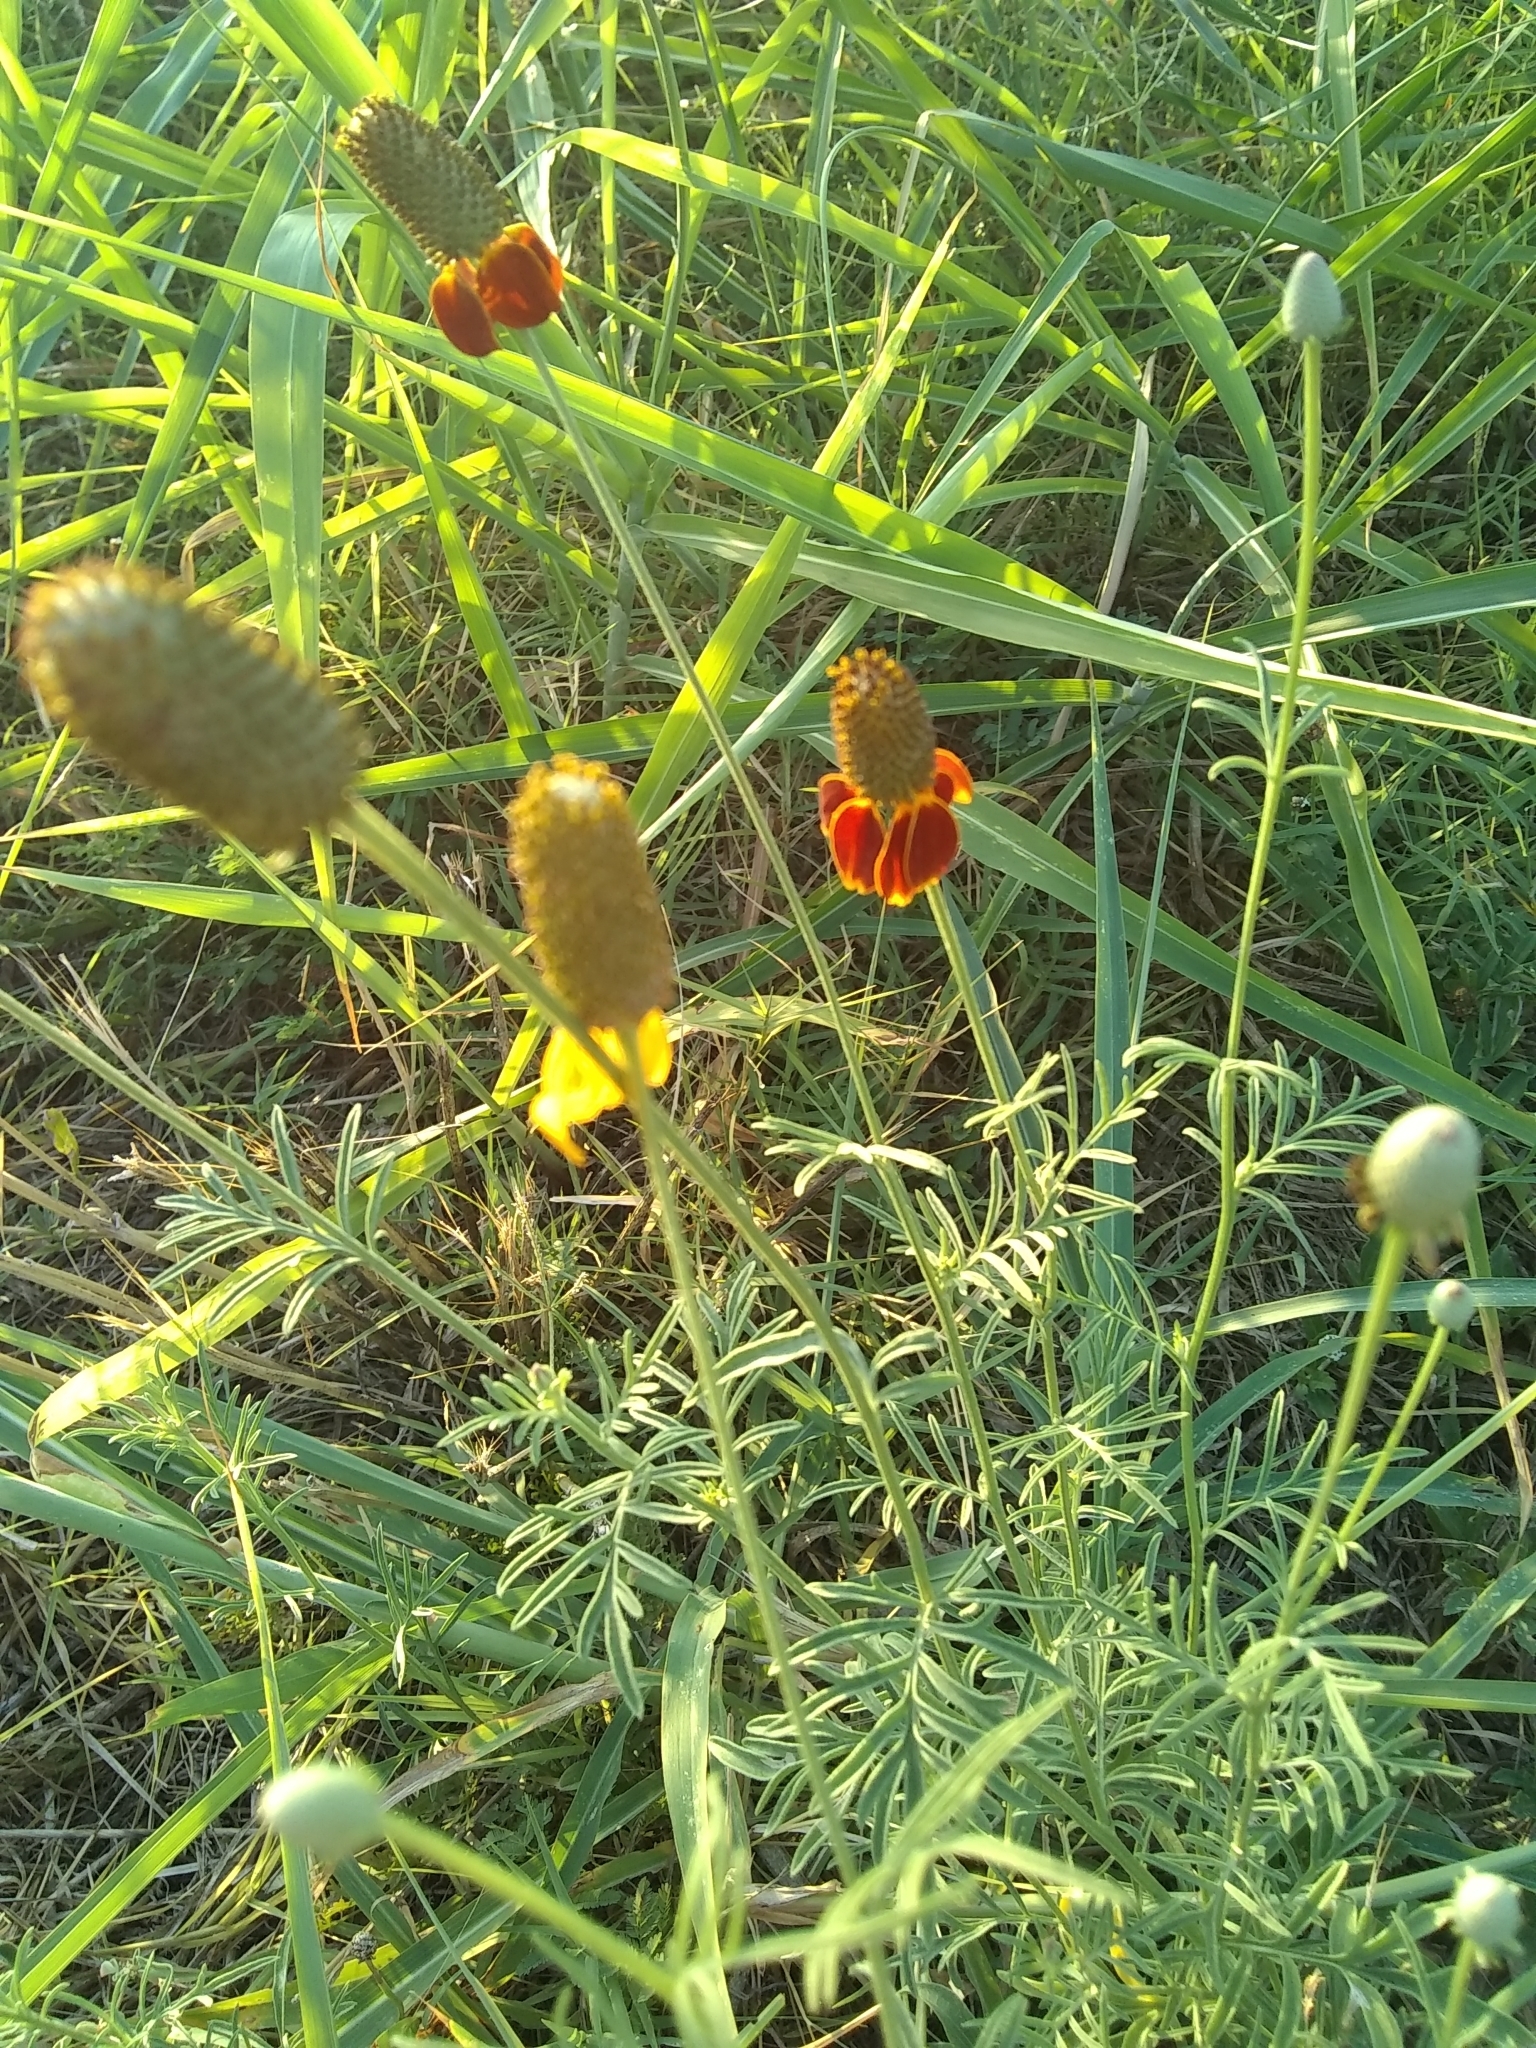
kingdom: Plantae
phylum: Tracheophyta
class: Magnoliopsida
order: Asterales
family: Asteraceae
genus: Ratibida
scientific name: Ratibida columnifera
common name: Prairie coneflower
